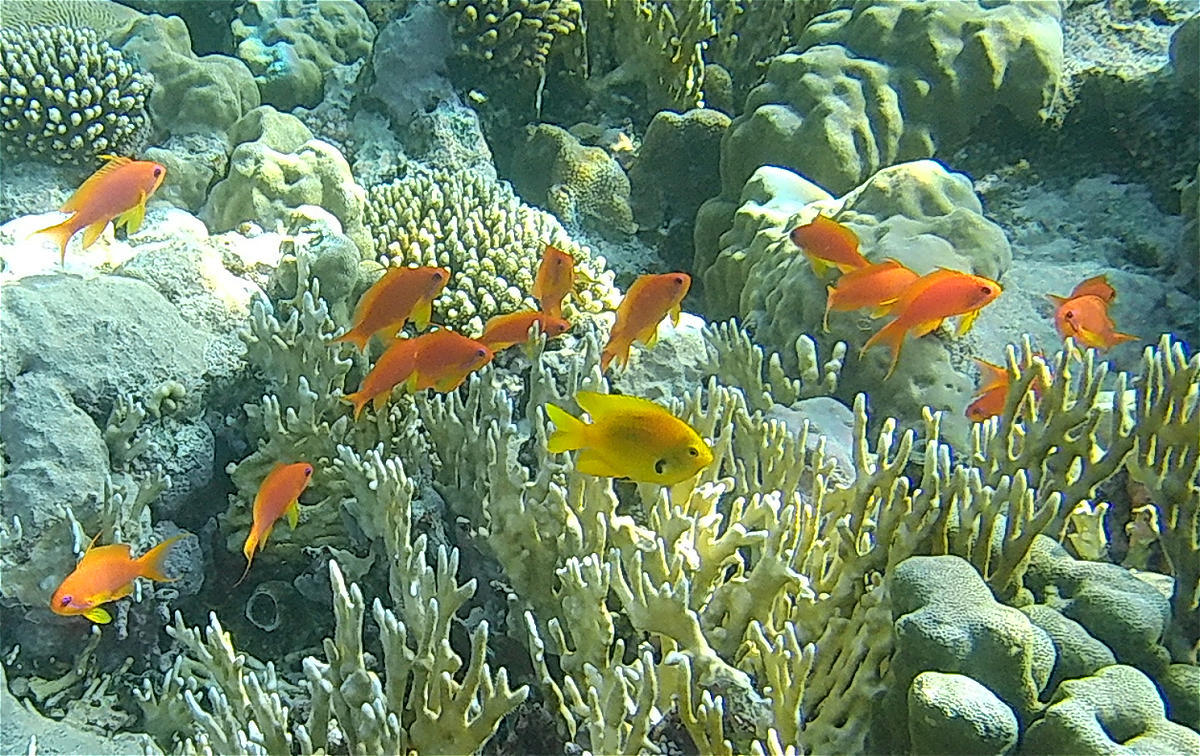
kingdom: Animalia
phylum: Chordata
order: Perciformes
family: Serranidae
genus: Pseudanthias
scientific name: Pseudanthias squamipinnis
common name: Scalefin anthias
